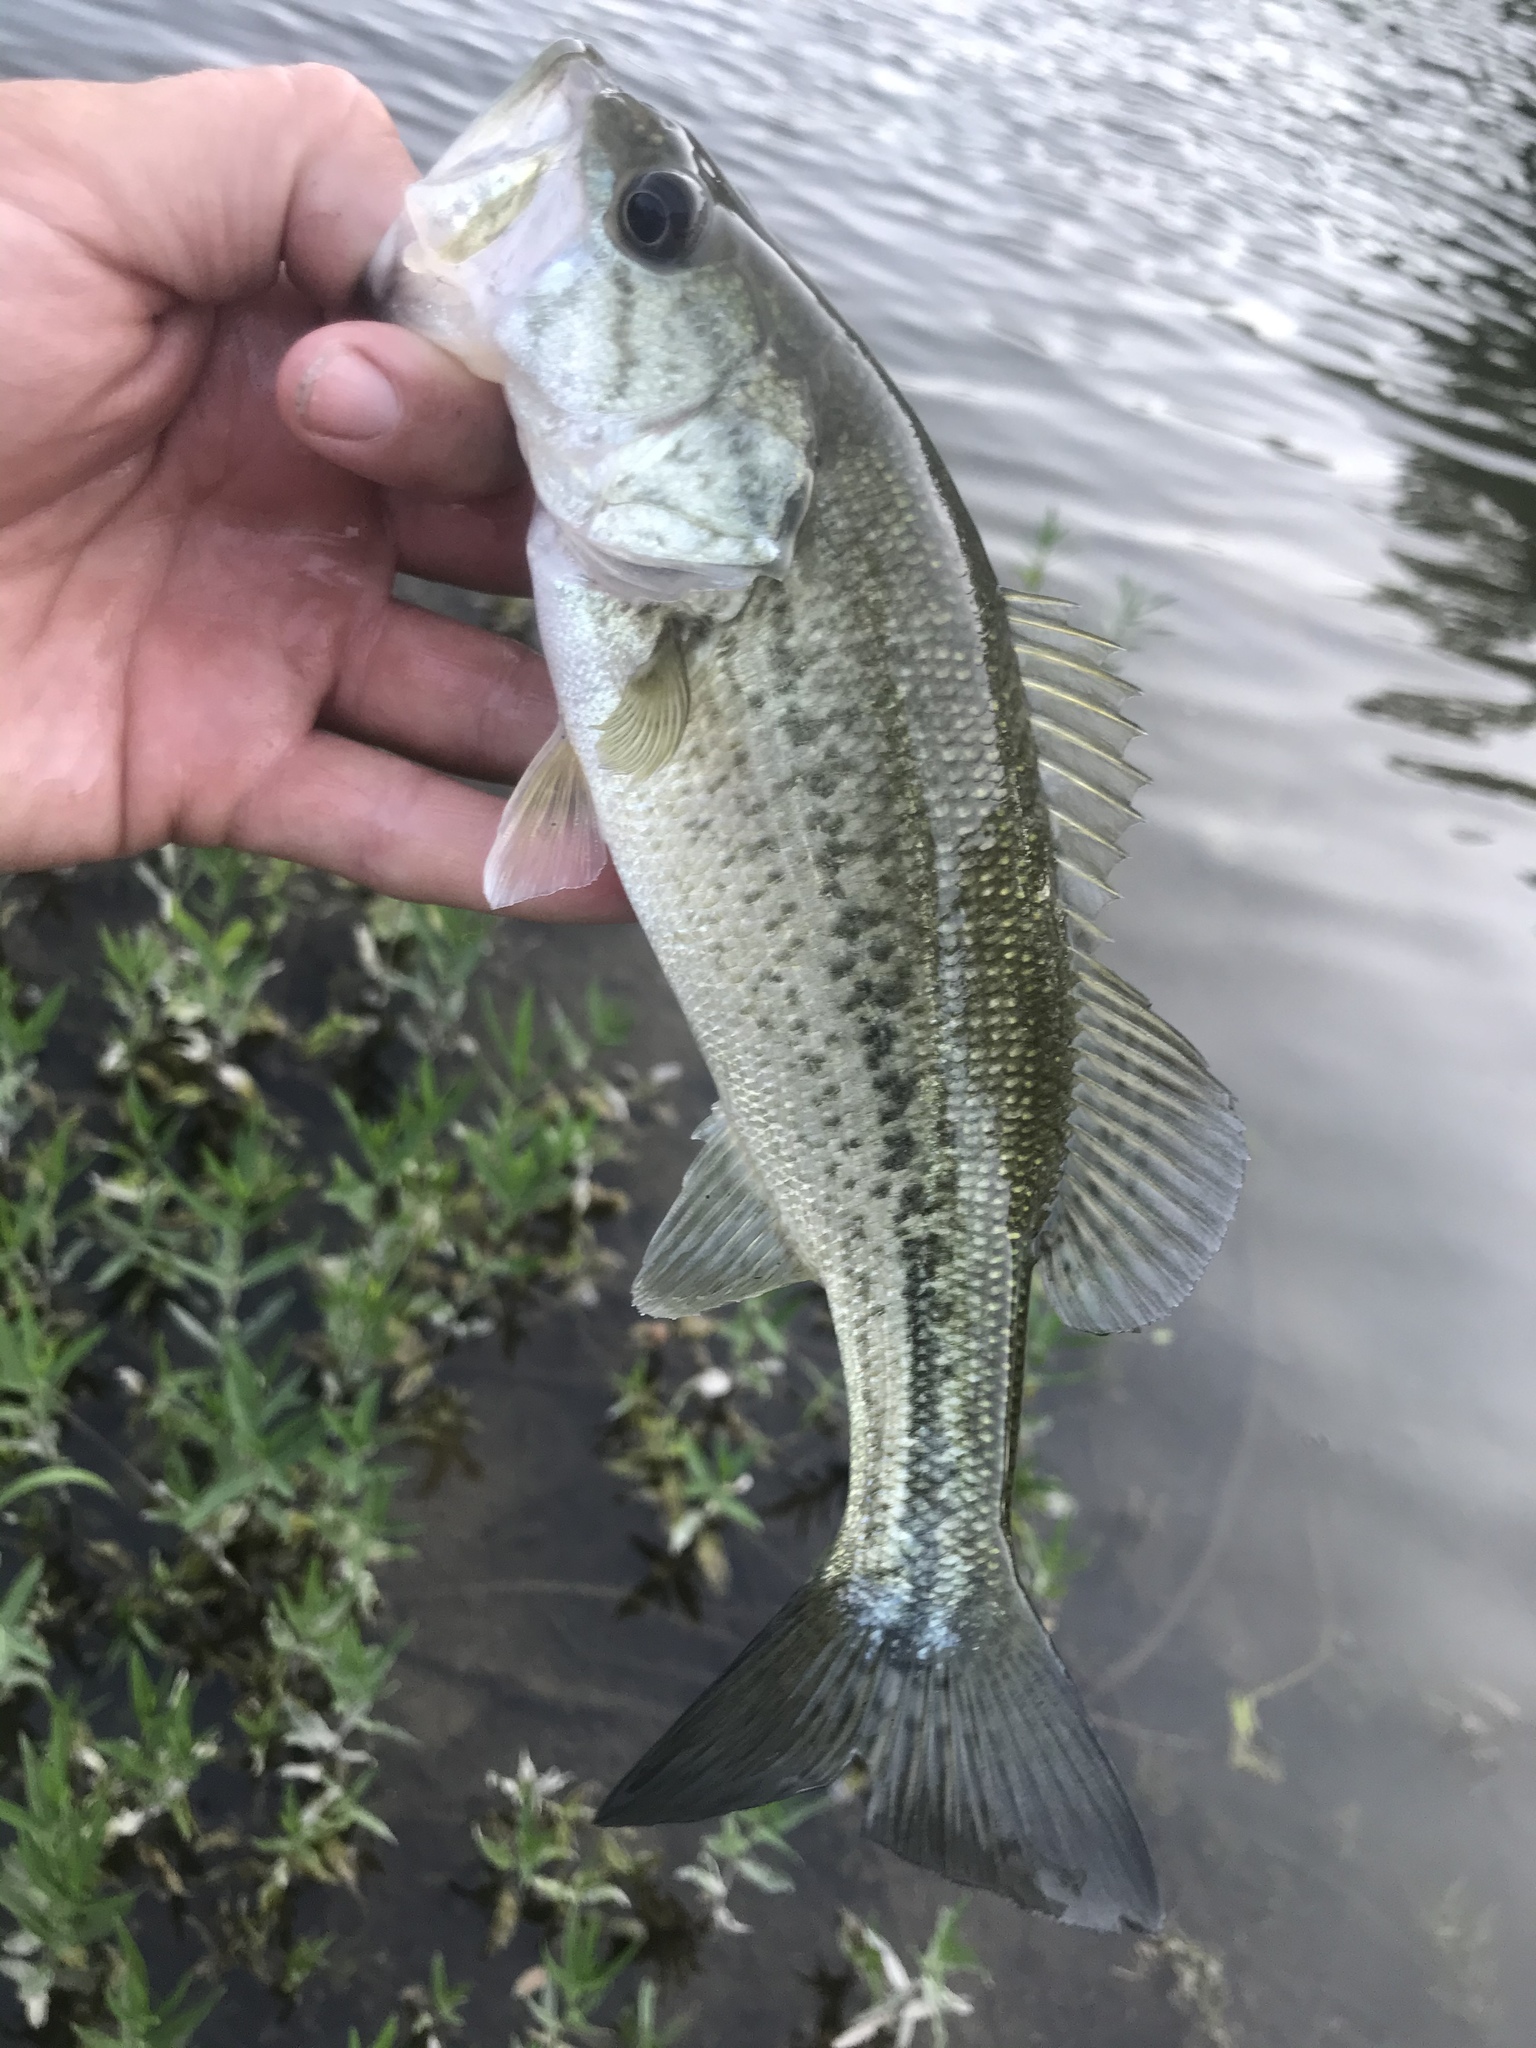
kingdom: Animalia
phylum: Chordata
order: Perciformes
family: Centrarchidae
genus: Micropterus
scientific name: Micropterus
